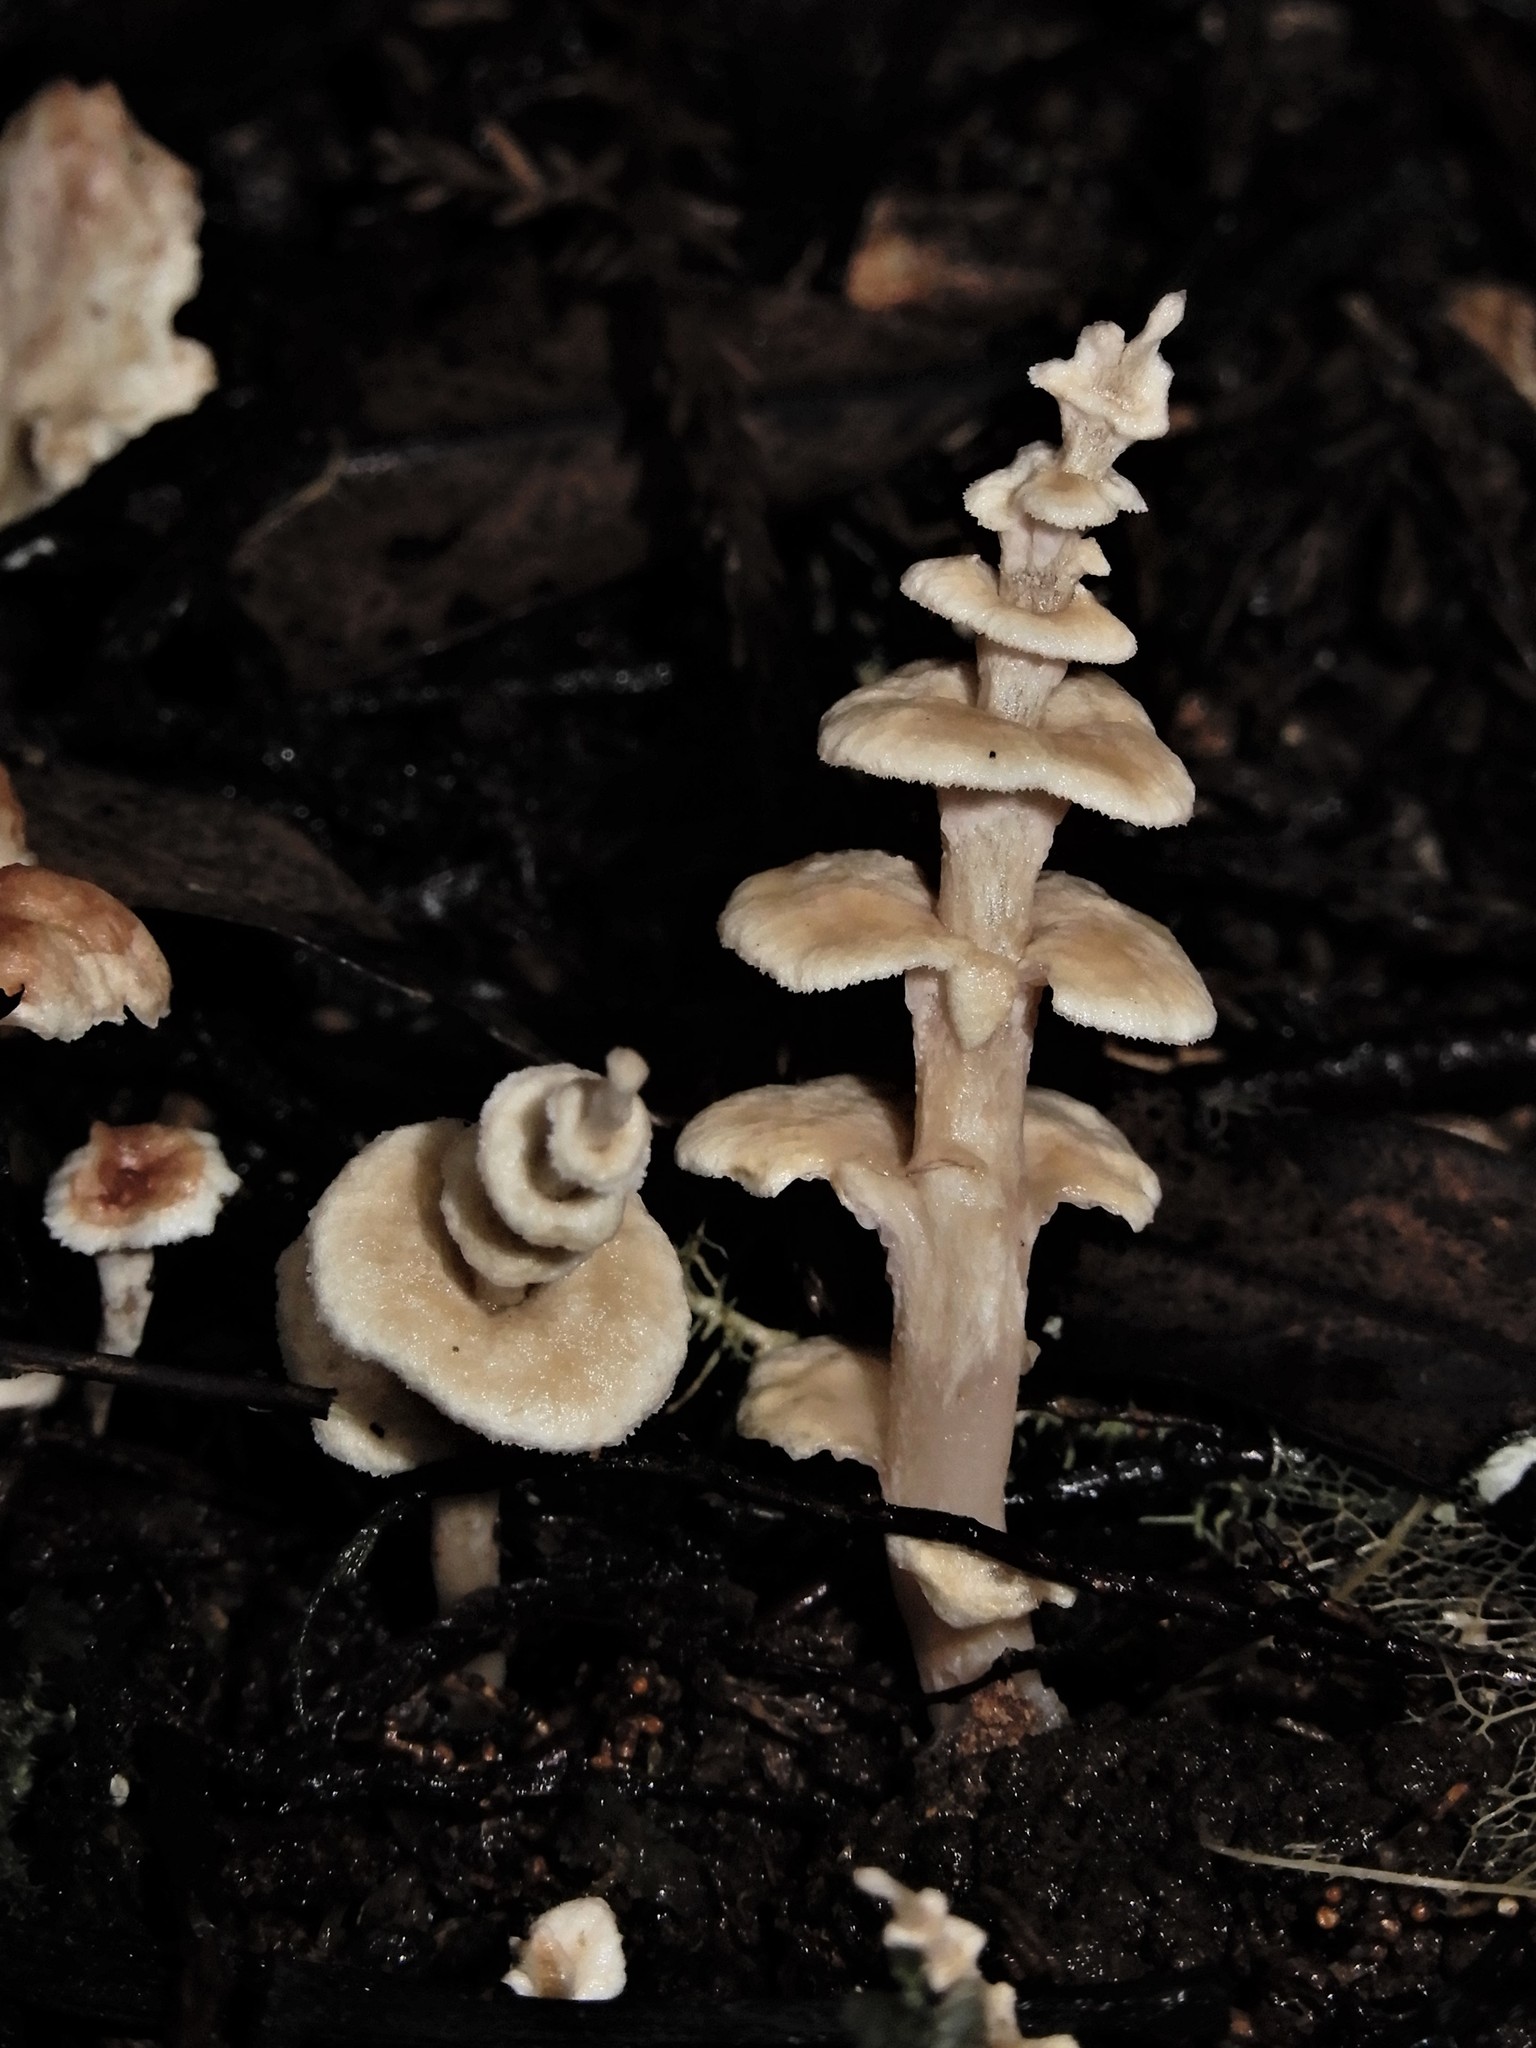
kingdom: Fungi
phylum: Basidiomycota
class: Agaricomycetes
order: Amylocorticiales
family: Amylocorticiaceae
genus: Podoserpula
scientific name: Podoserpula
